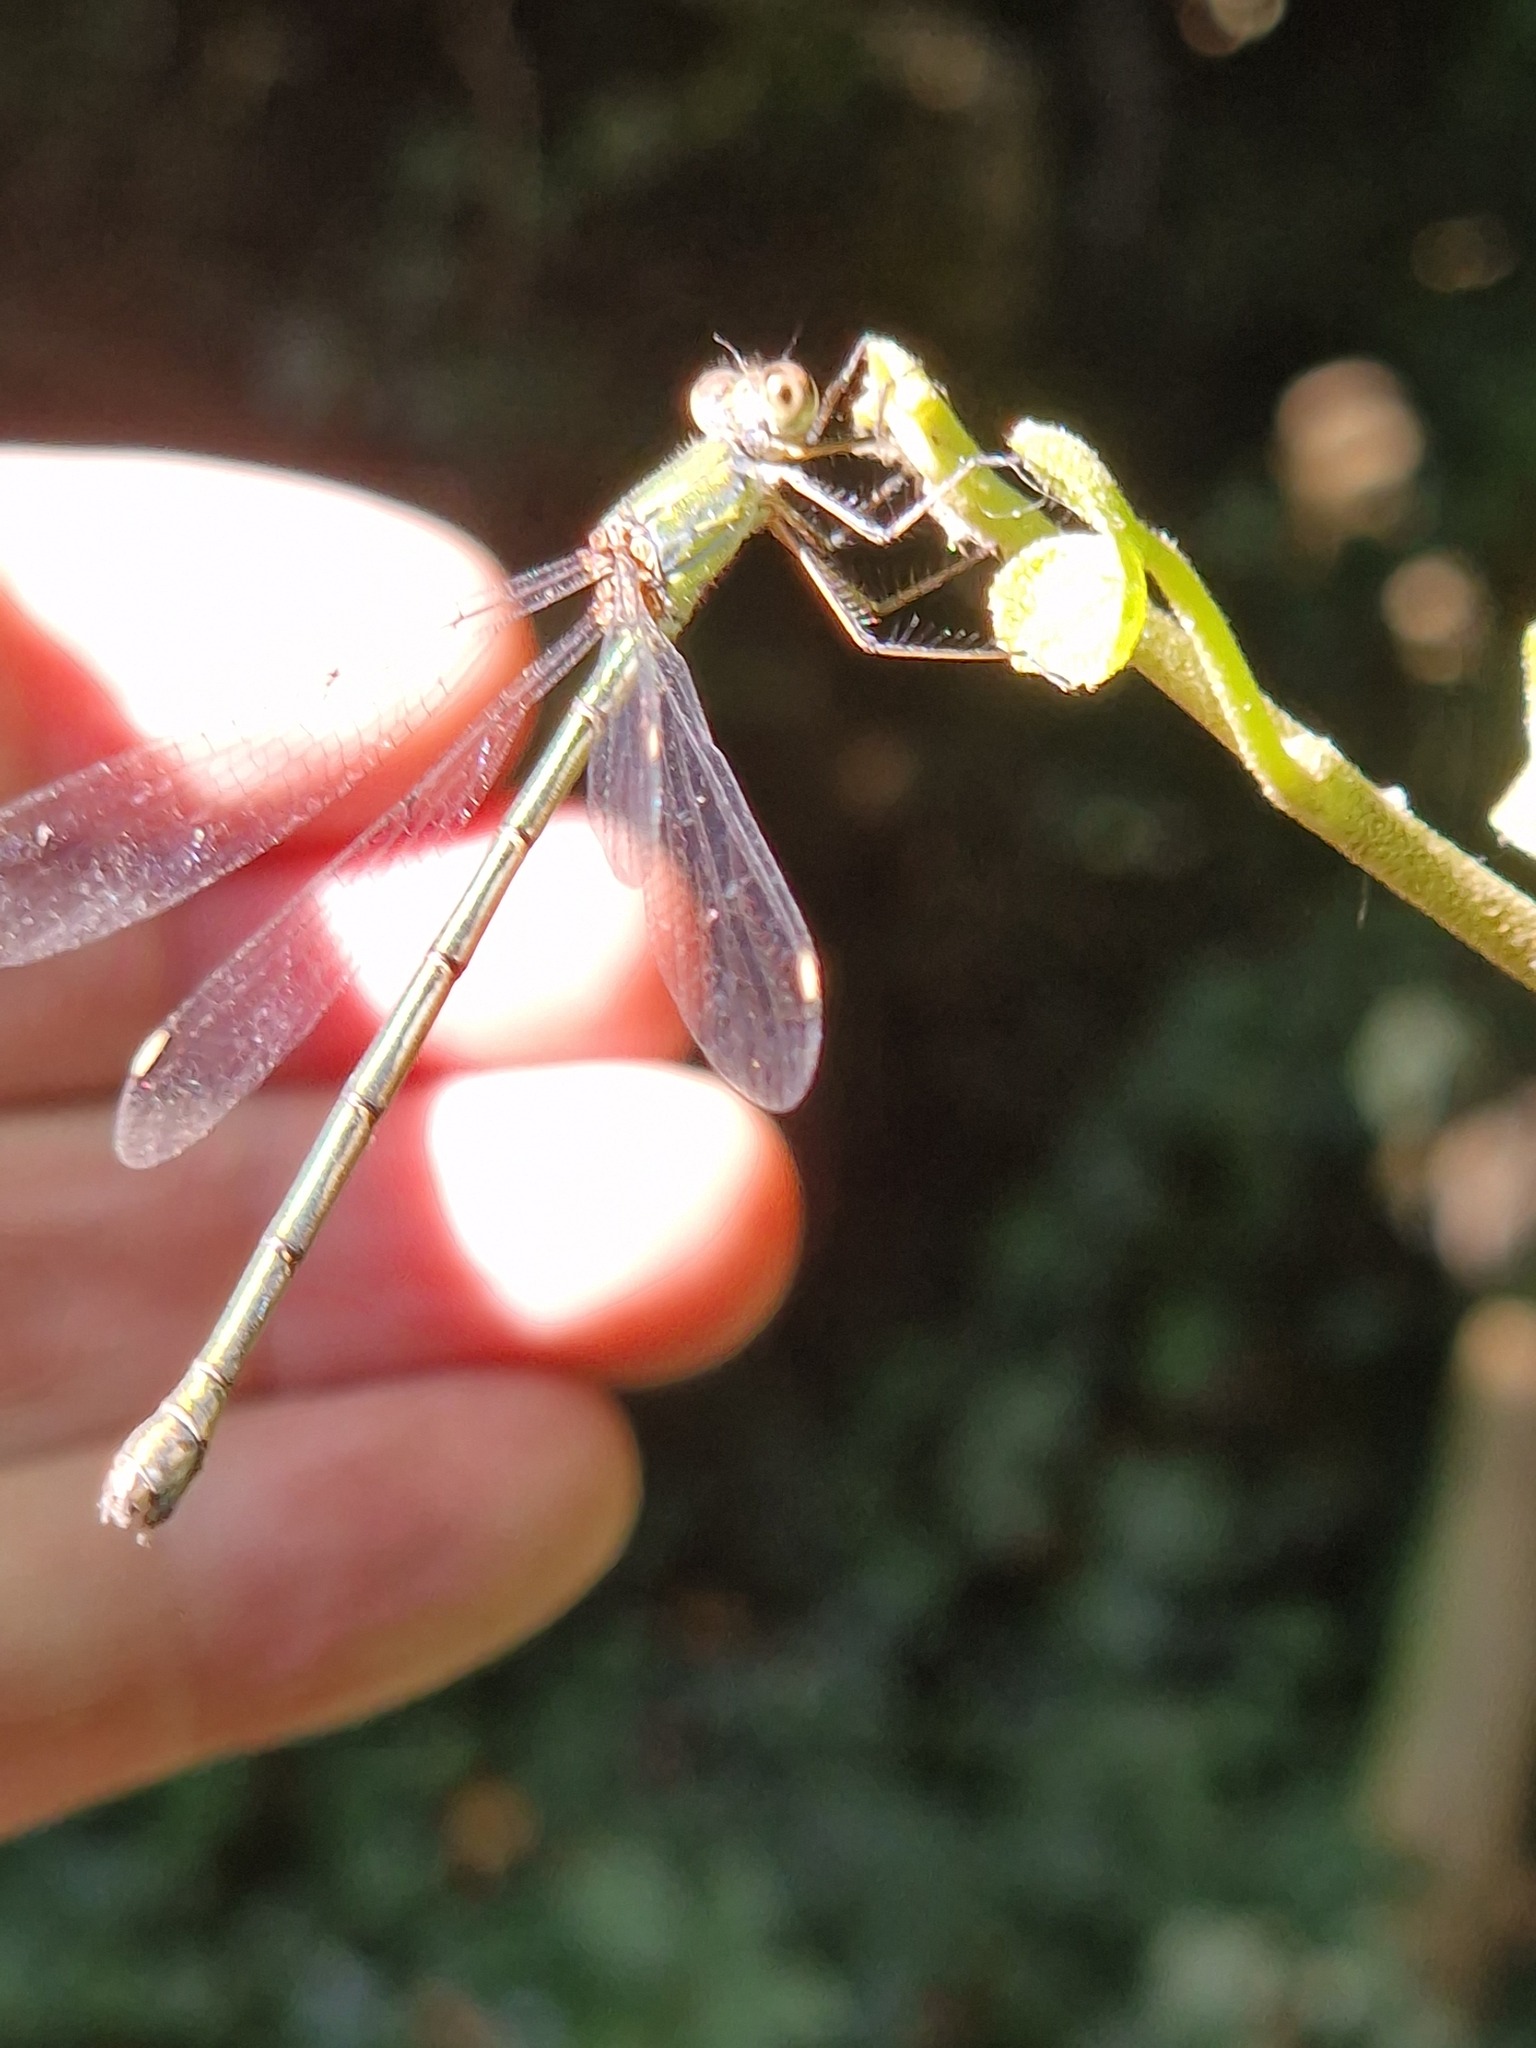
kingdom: Animalia
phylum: Arthropoda
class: Insecta
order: Odonata
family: Lestidae
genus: Chalcolestes
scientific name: Chalcolestes viridis
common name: Green emerald damselfly
